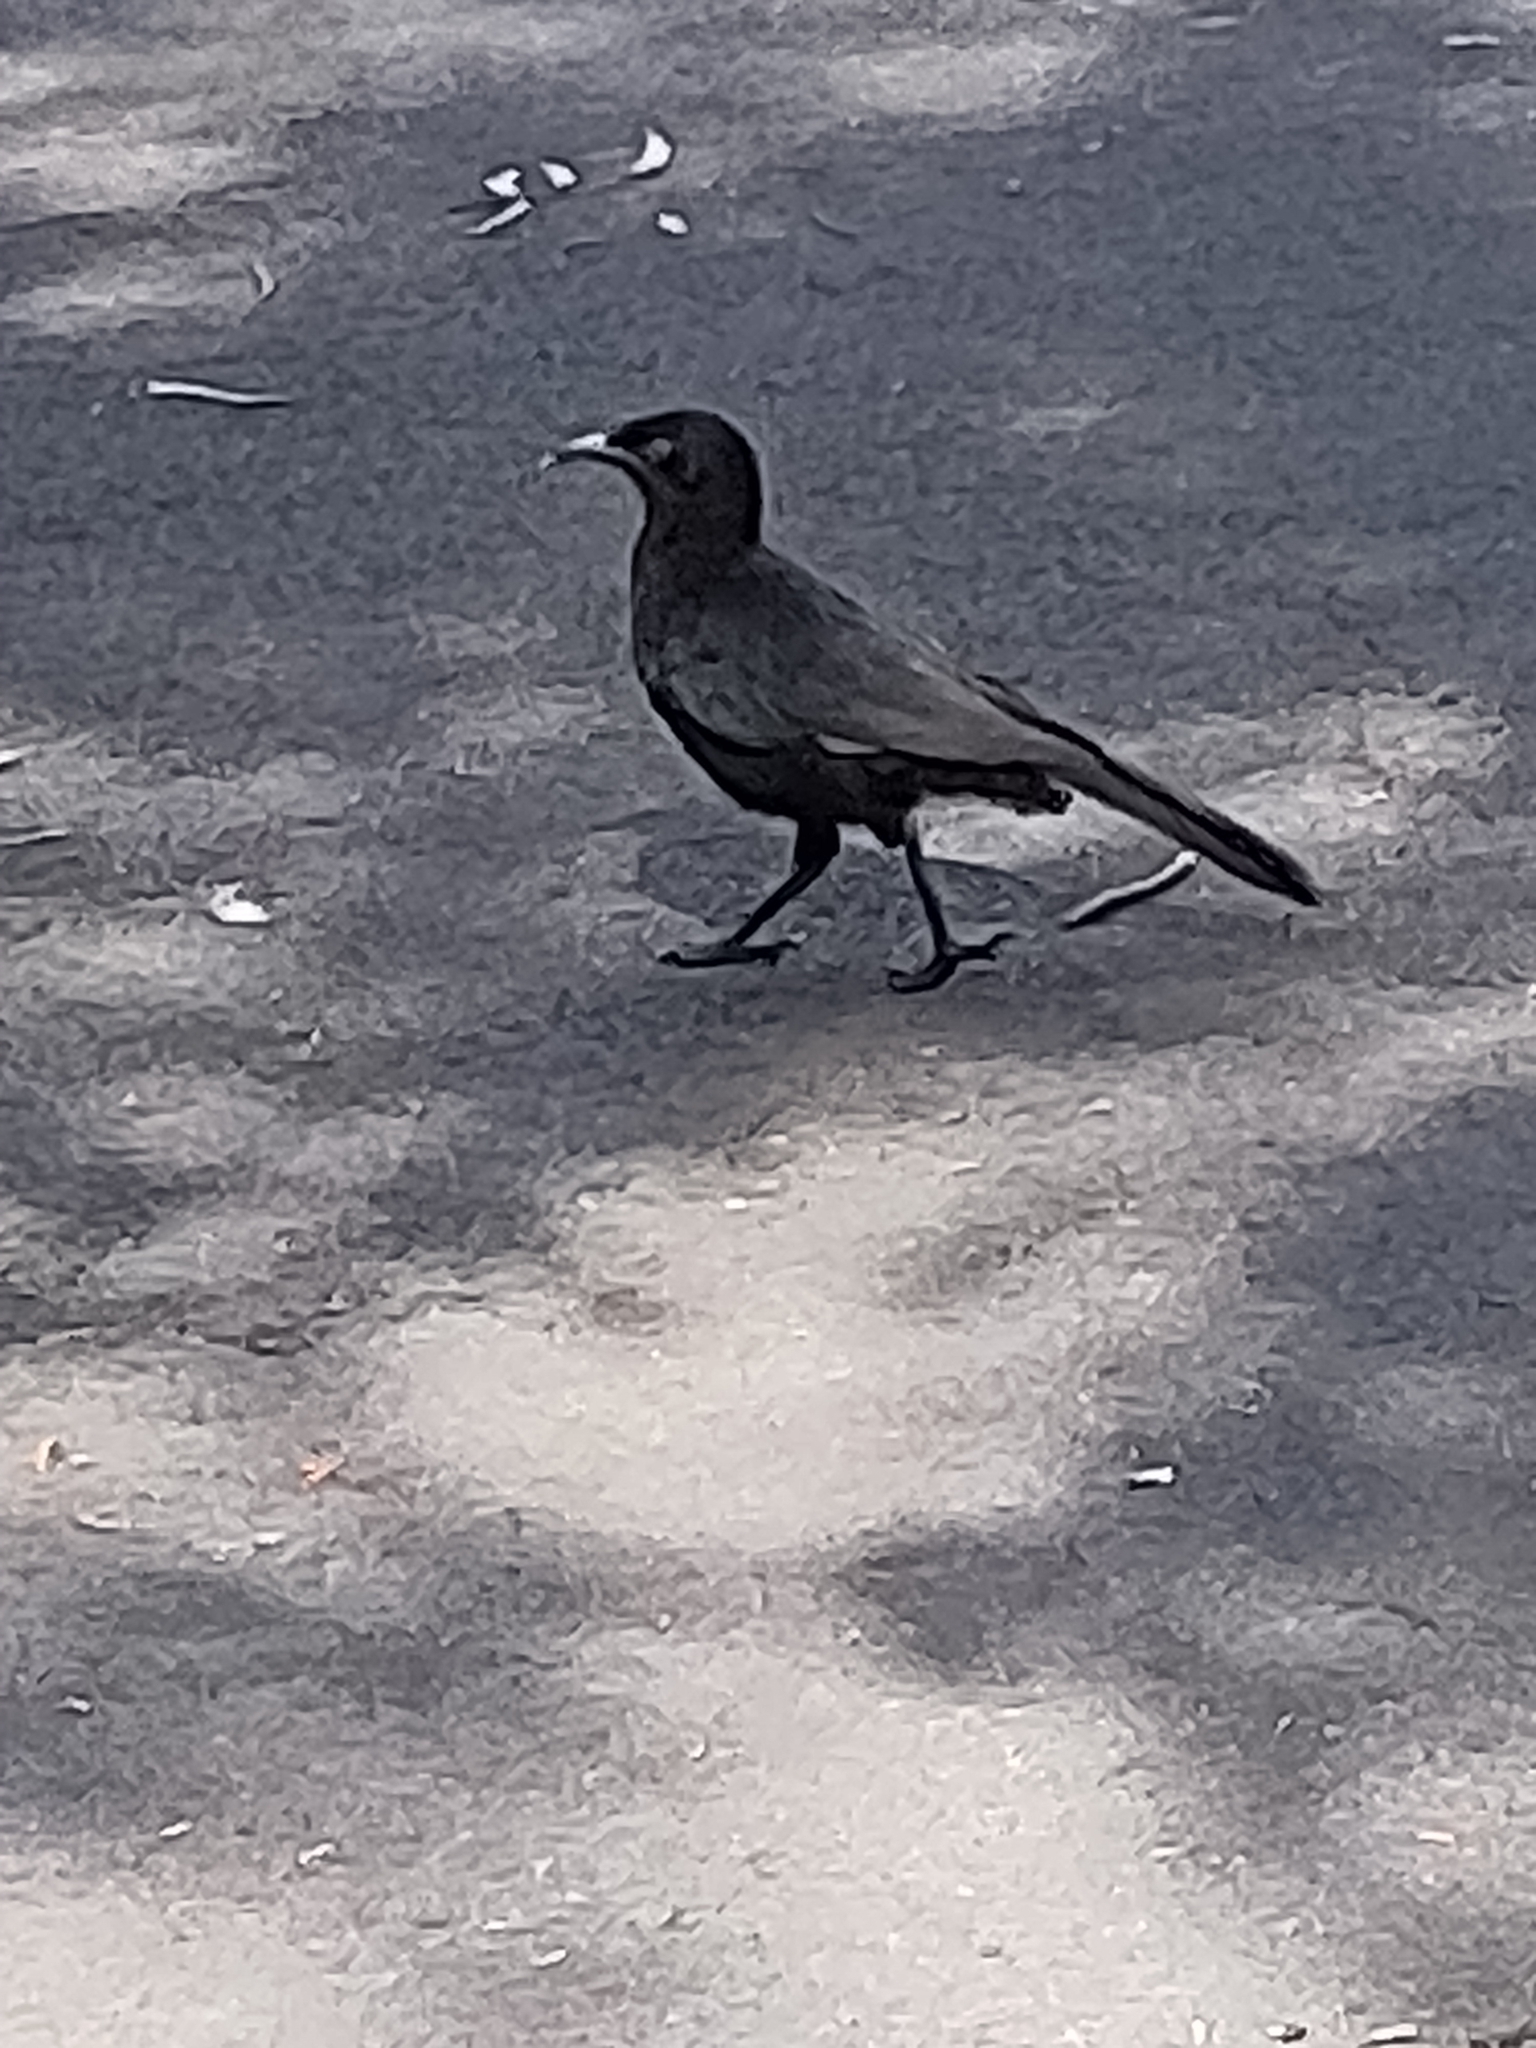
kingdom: Animalia
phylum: Chordata
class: Aves
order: Passeriformes
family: Corcoracidae
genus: Corcorax
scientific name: Corcorax melanoramphos
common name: White-winged chough
